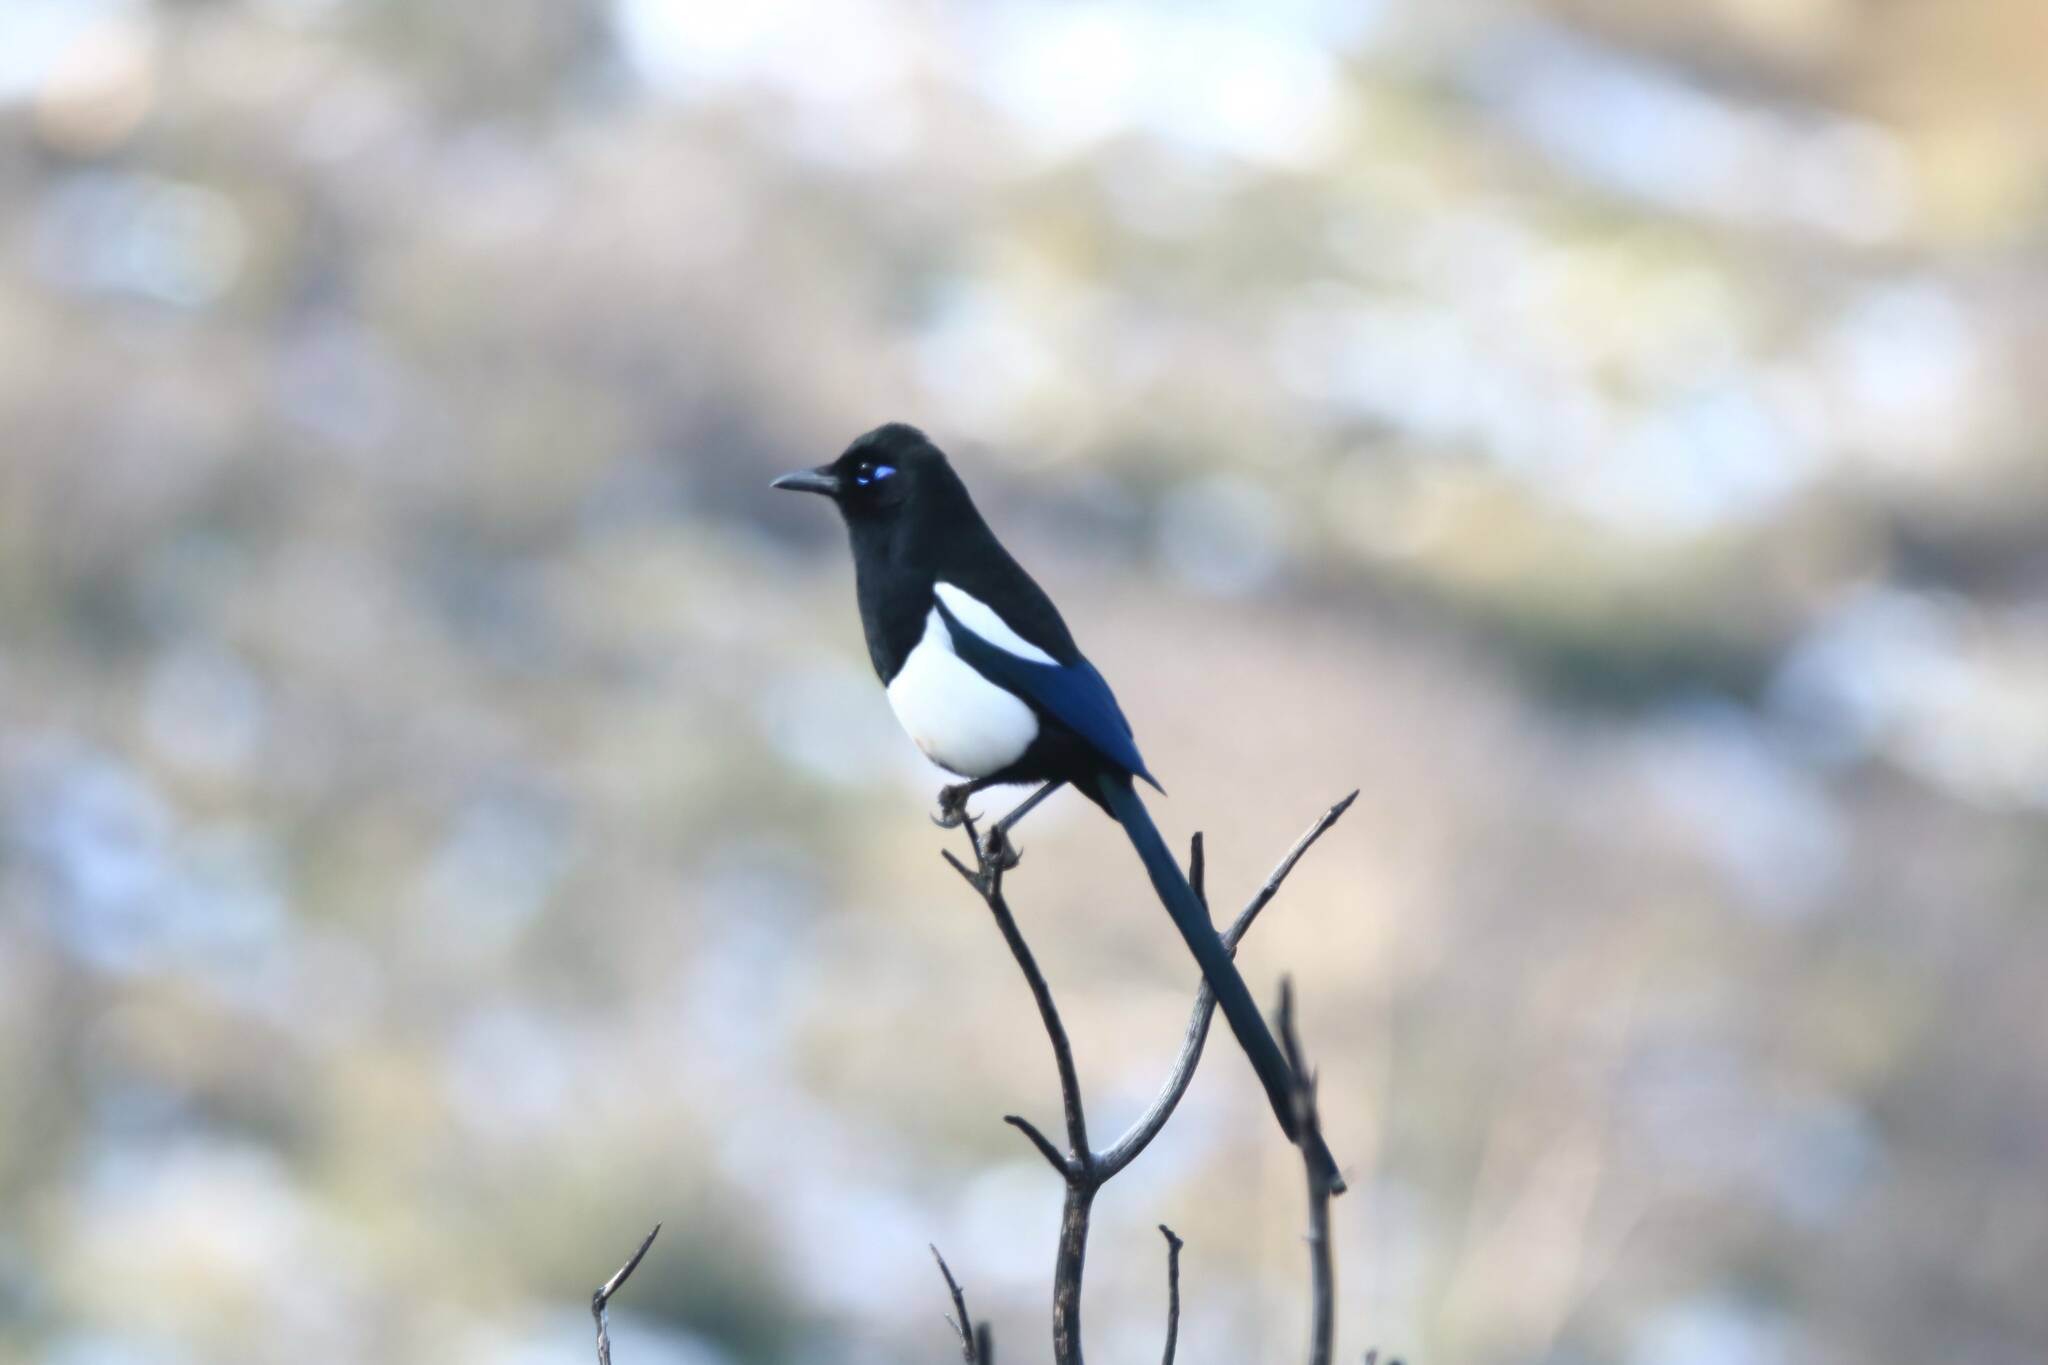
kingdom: Animalia
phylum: Chordata
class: Aves
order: Passeriformes
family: Corvidae
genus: Pica
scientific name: Pica mauritanica
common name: Maghreb magpie
